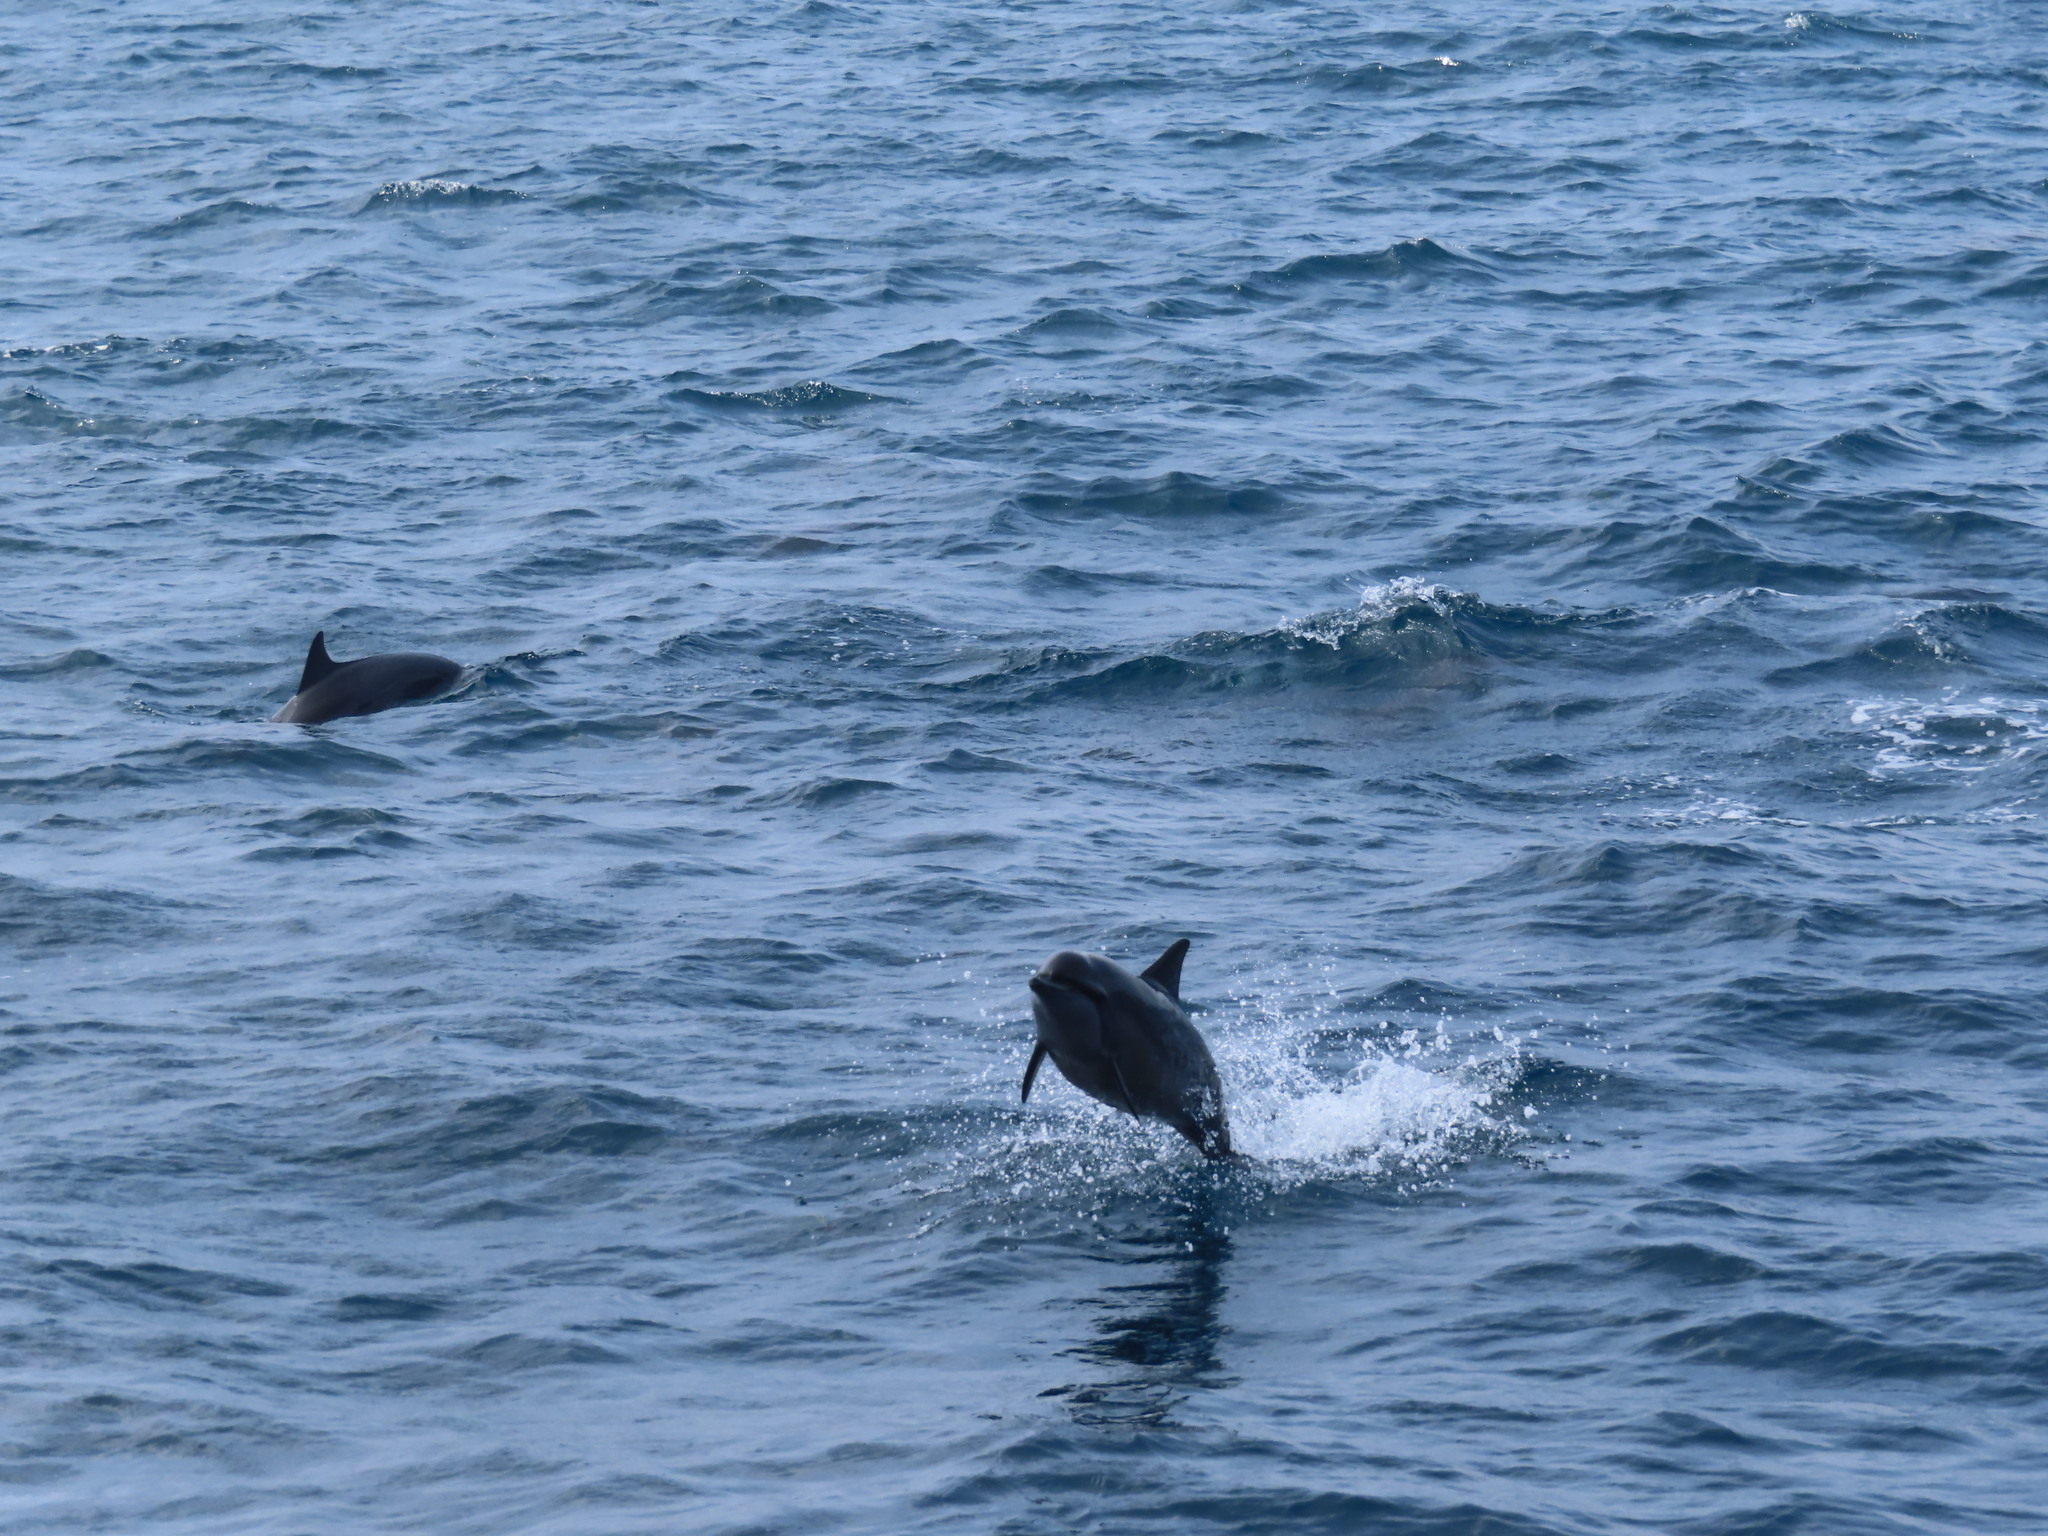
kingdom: Animalia
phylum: Chordata
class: Mammalia
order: Cetacea
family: Delphinidae
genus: Stenella
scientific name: Stenella longirostris
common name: Spinner dolphin
